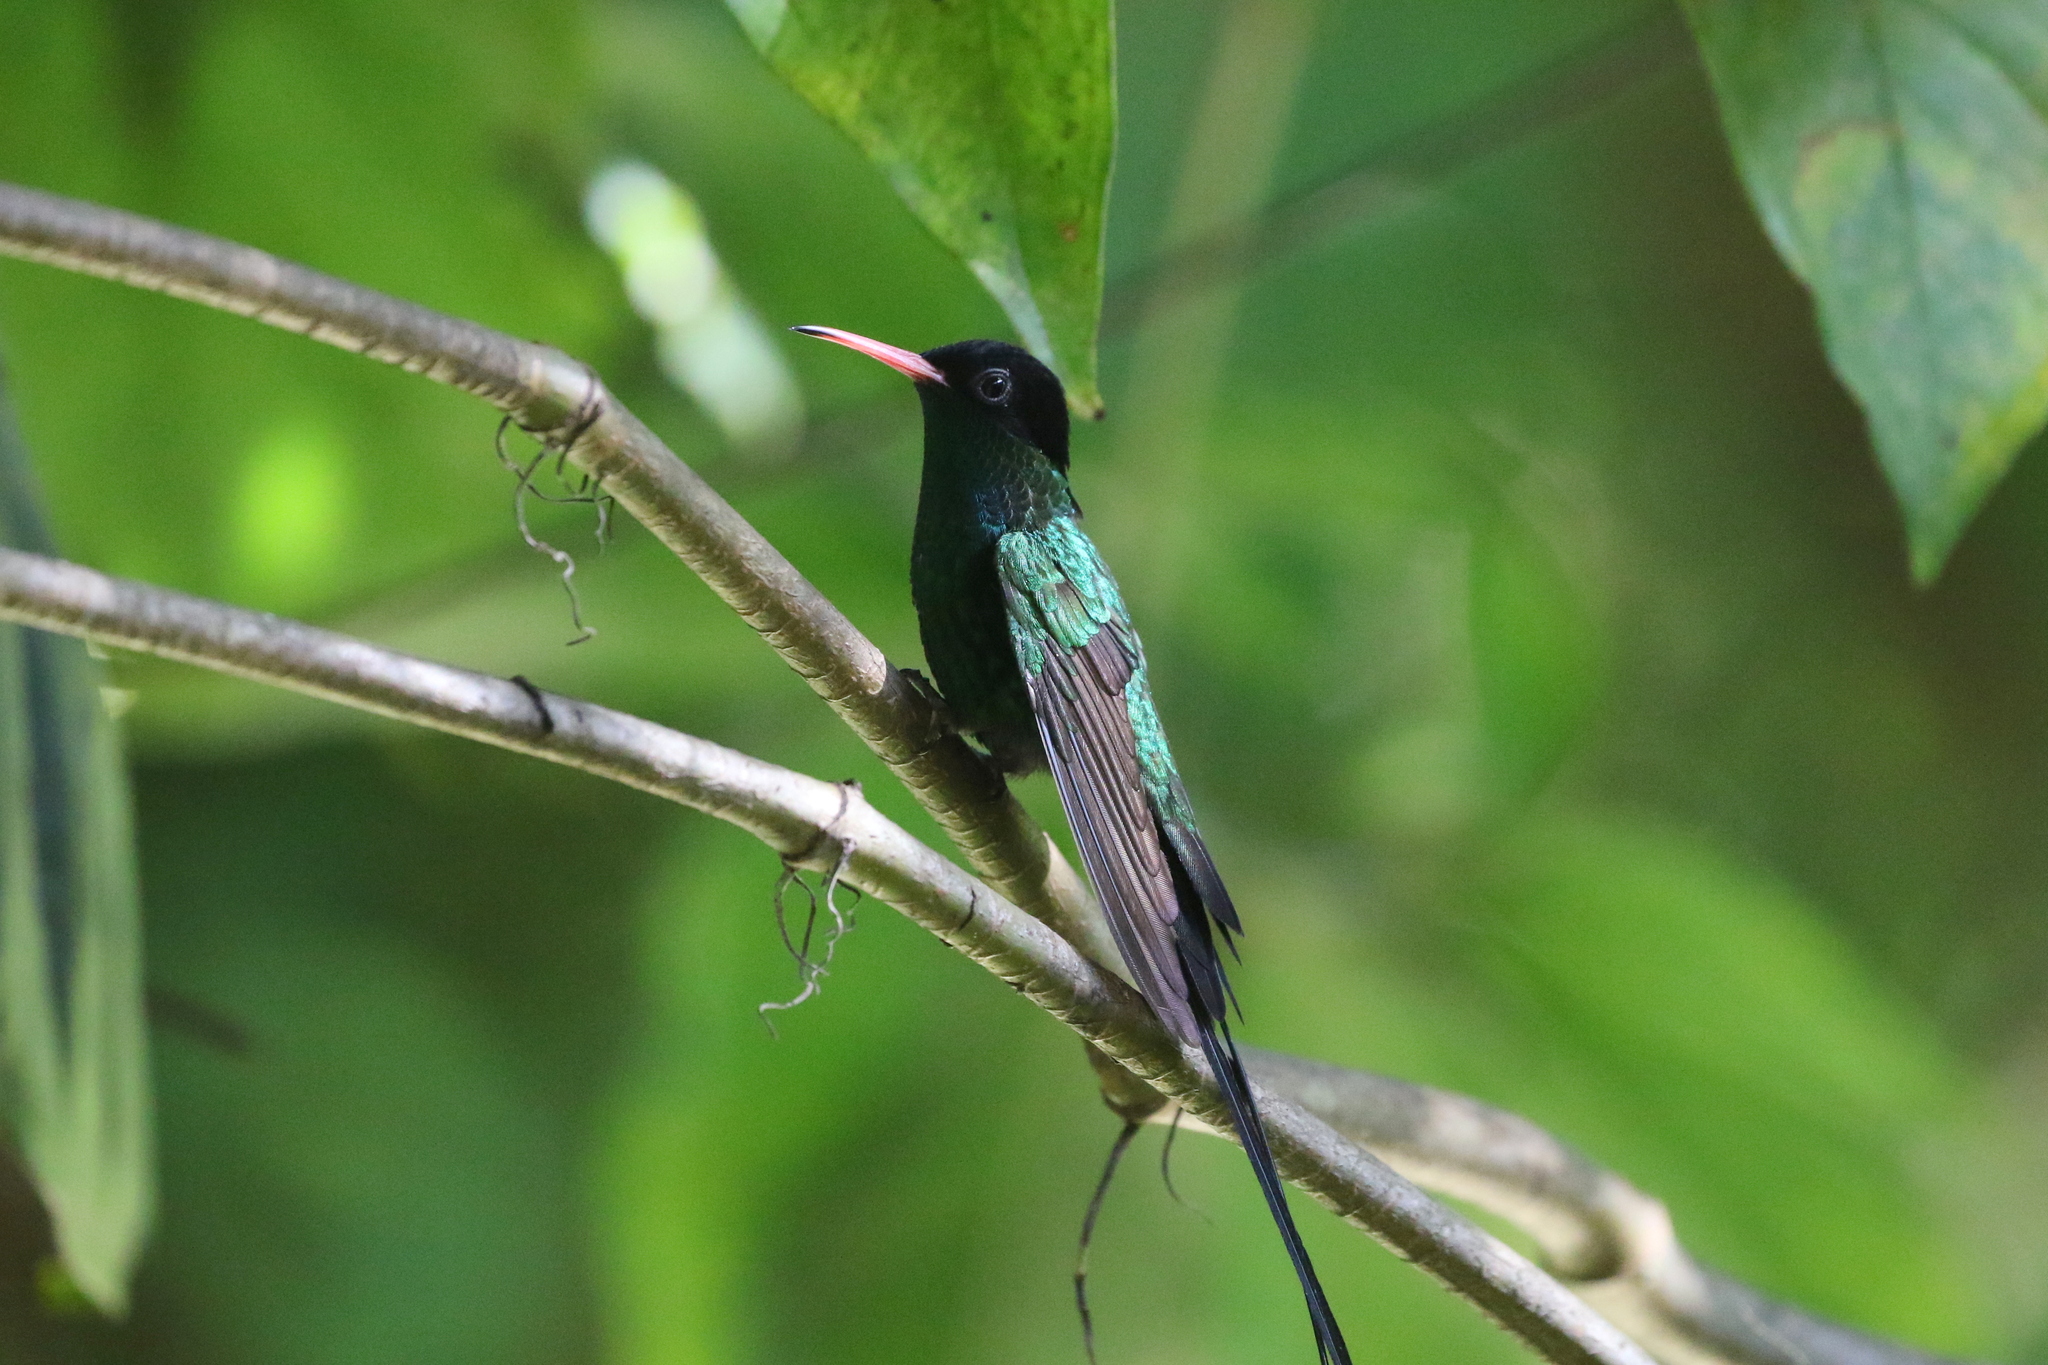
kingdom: Animalia
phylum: Chordata
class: Aves
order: Apodiformes
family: Trochilidae
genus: Trochilus
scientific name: Trochilus polytmus
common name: Red-billed streamertail
